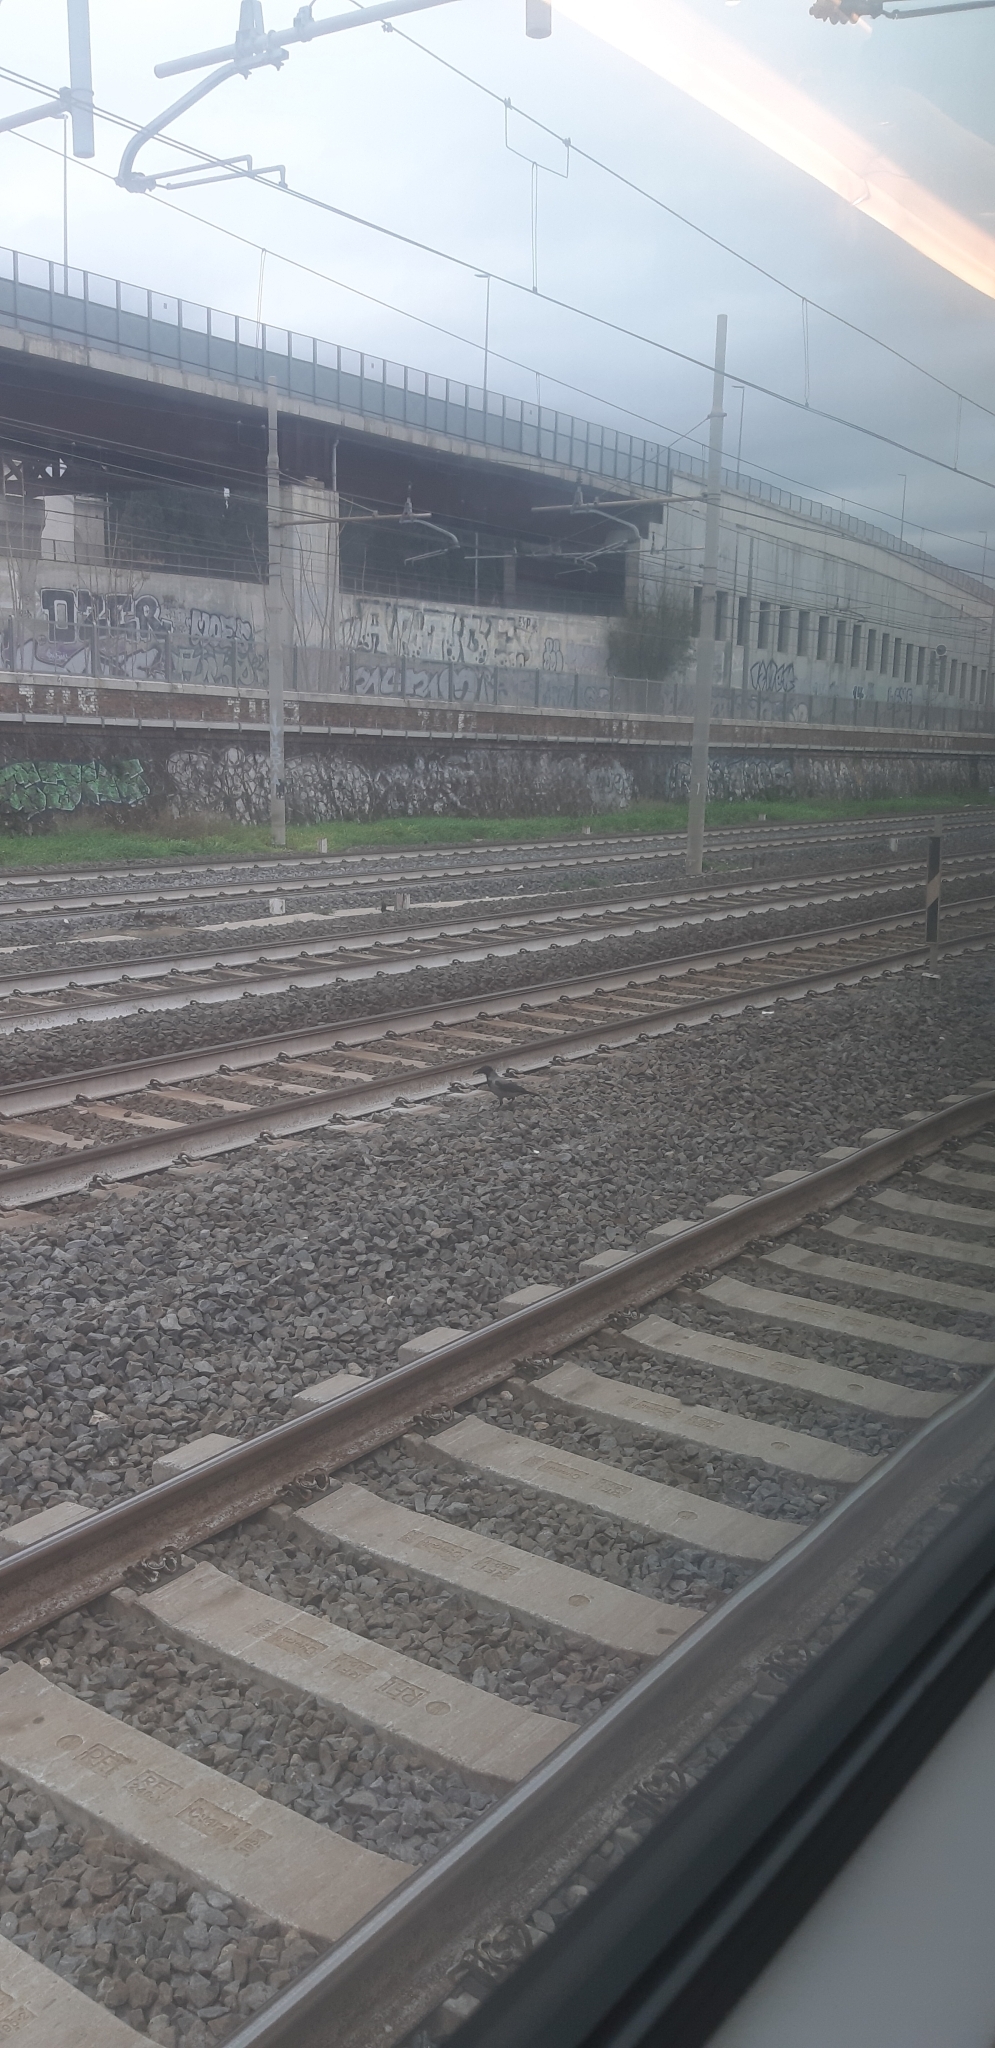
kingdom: Animalia
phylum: Chordata
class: Aves
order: Passeriformes
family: Corvidae
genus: Corvus
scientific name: Corvus cornix
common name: Hooded crow
